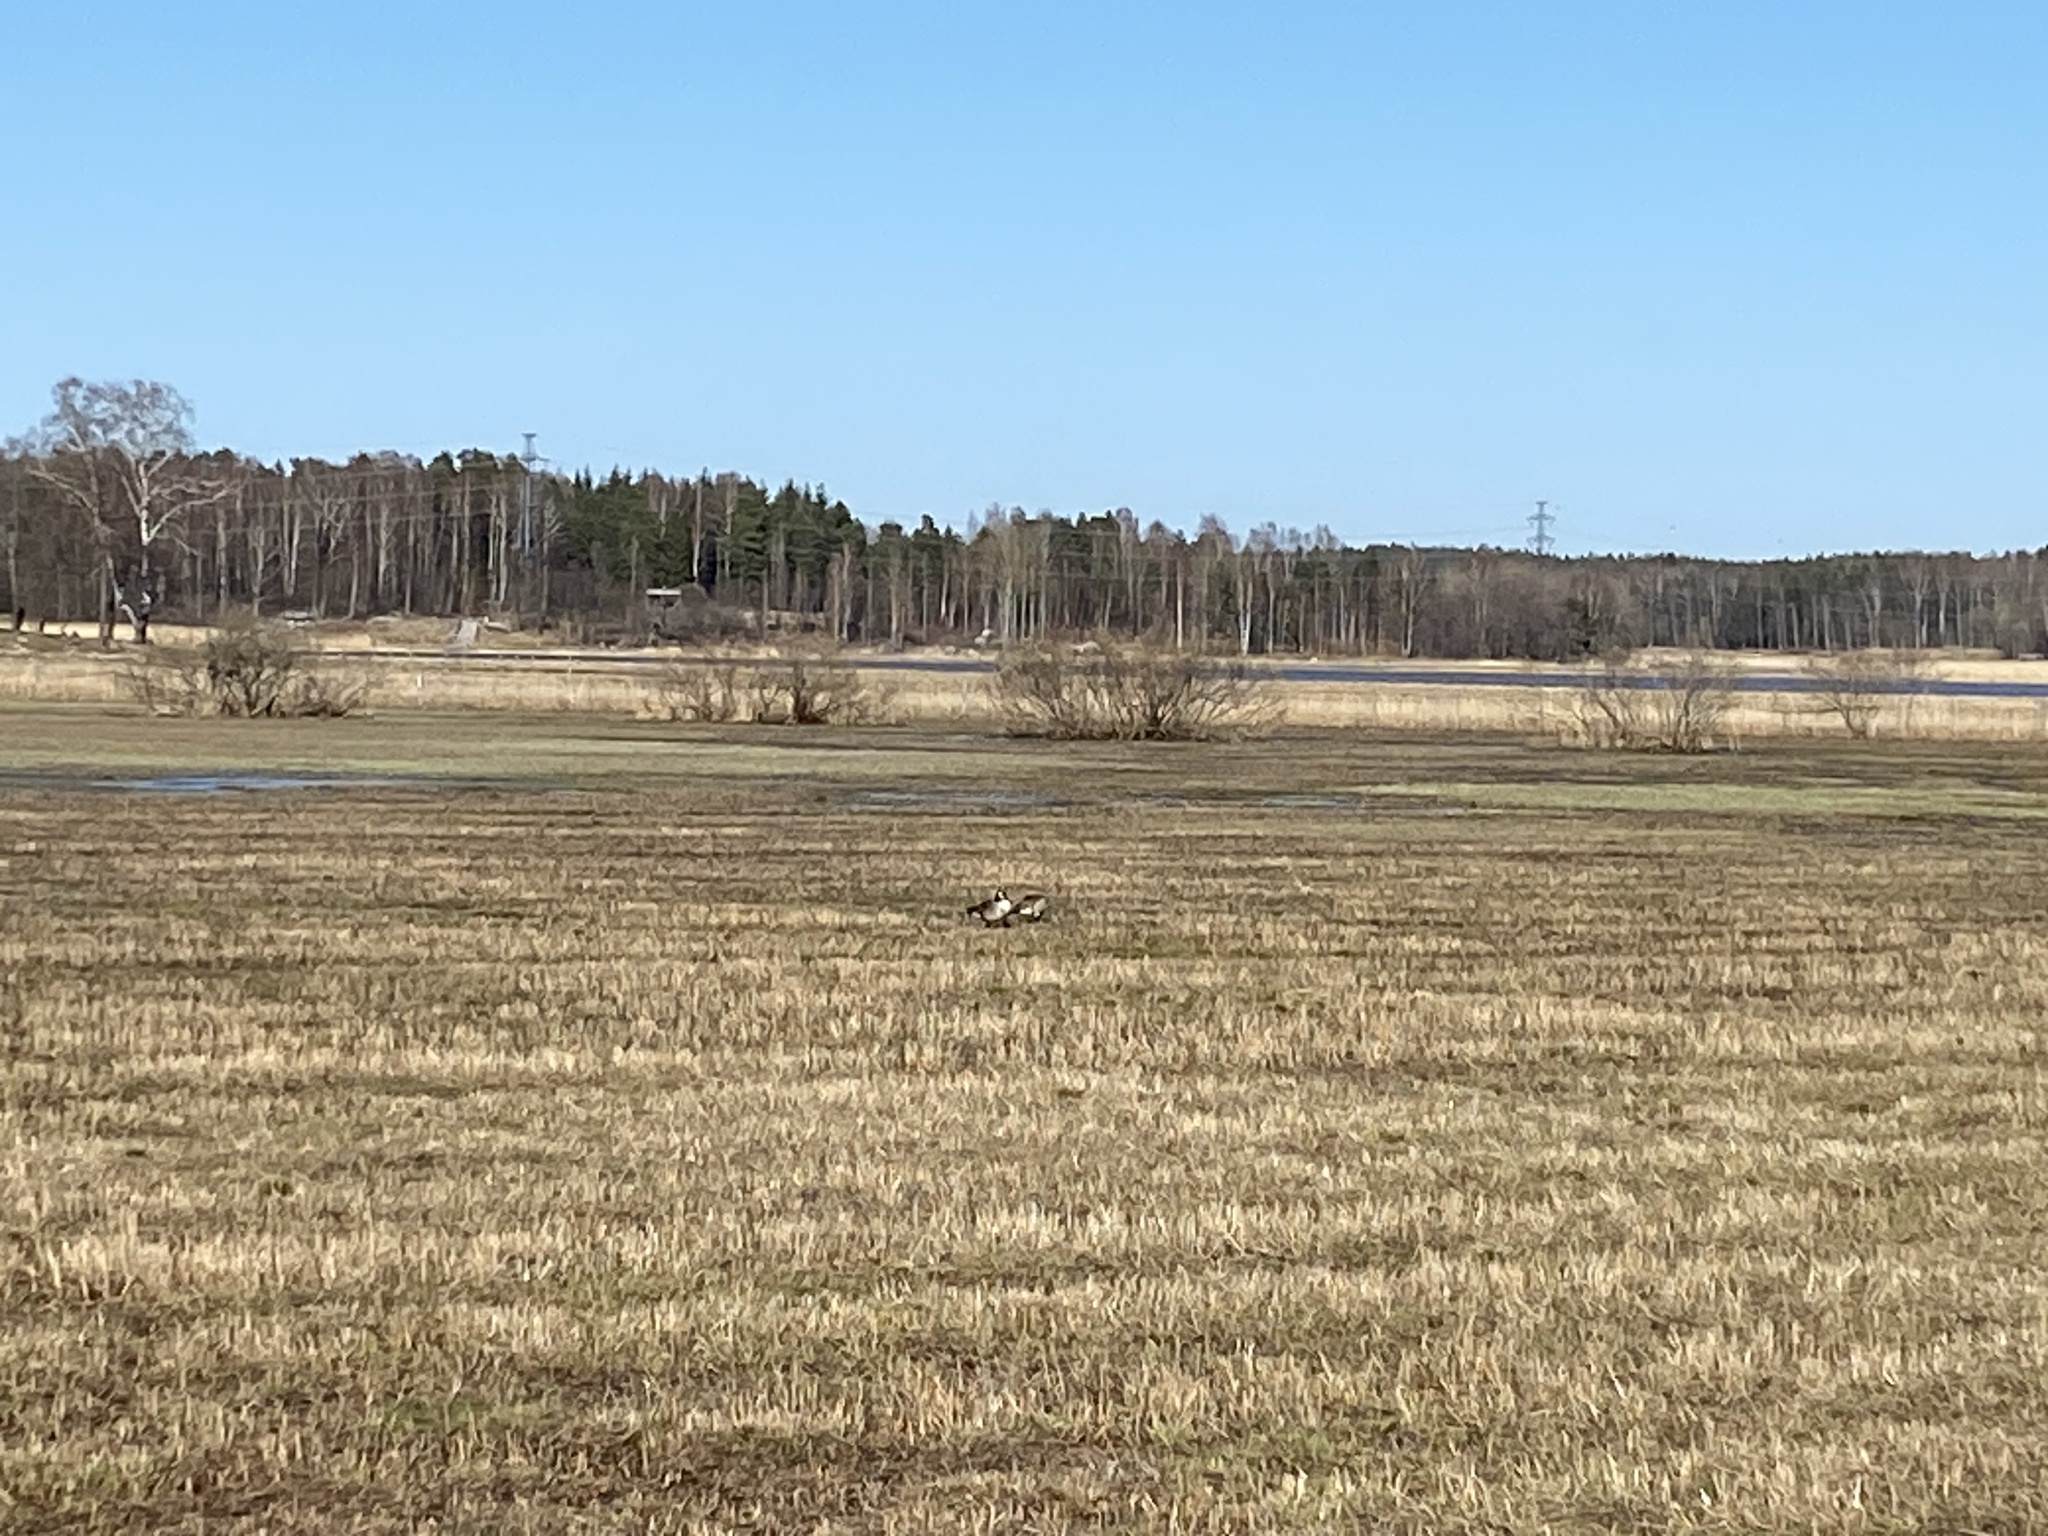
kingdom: Animalia
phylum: Chordata
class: Aves
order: Anseriformes
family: Anatidae
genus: Branta
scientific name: Branta canadensis
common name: Canada goose
